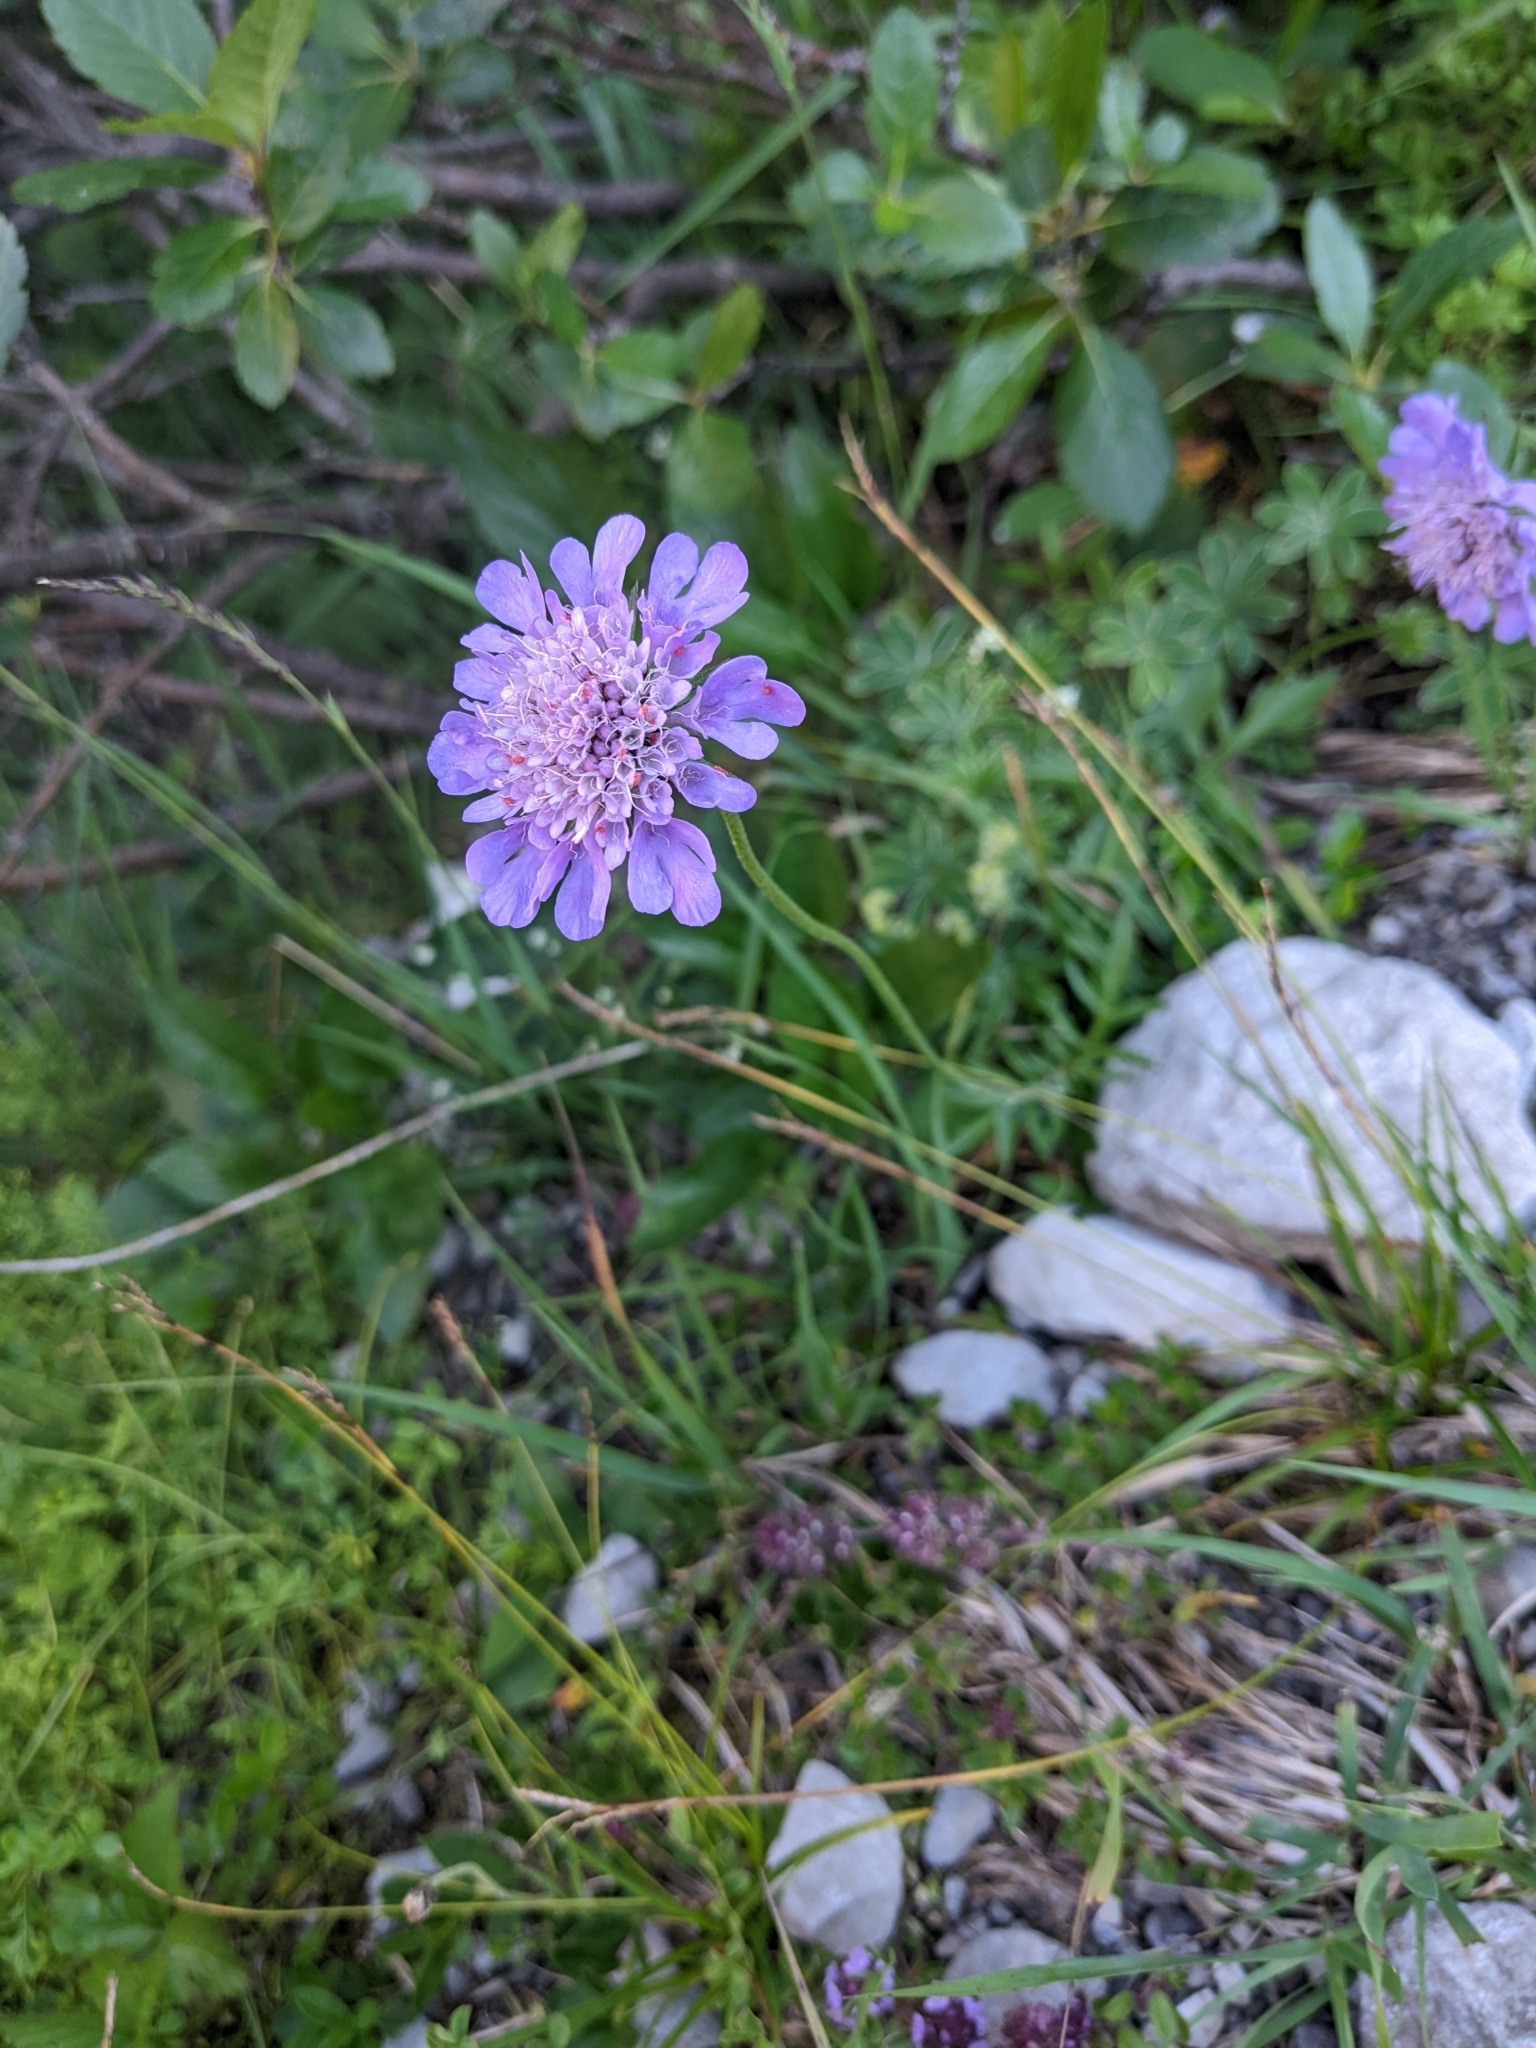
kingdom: Plantae
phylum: Tracheophyta
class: Magnoliopsida
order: Dipsacales
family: Caprifoliaceae
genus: Scabiosa
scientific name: Scabiosa lucida
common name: Shining scabious
